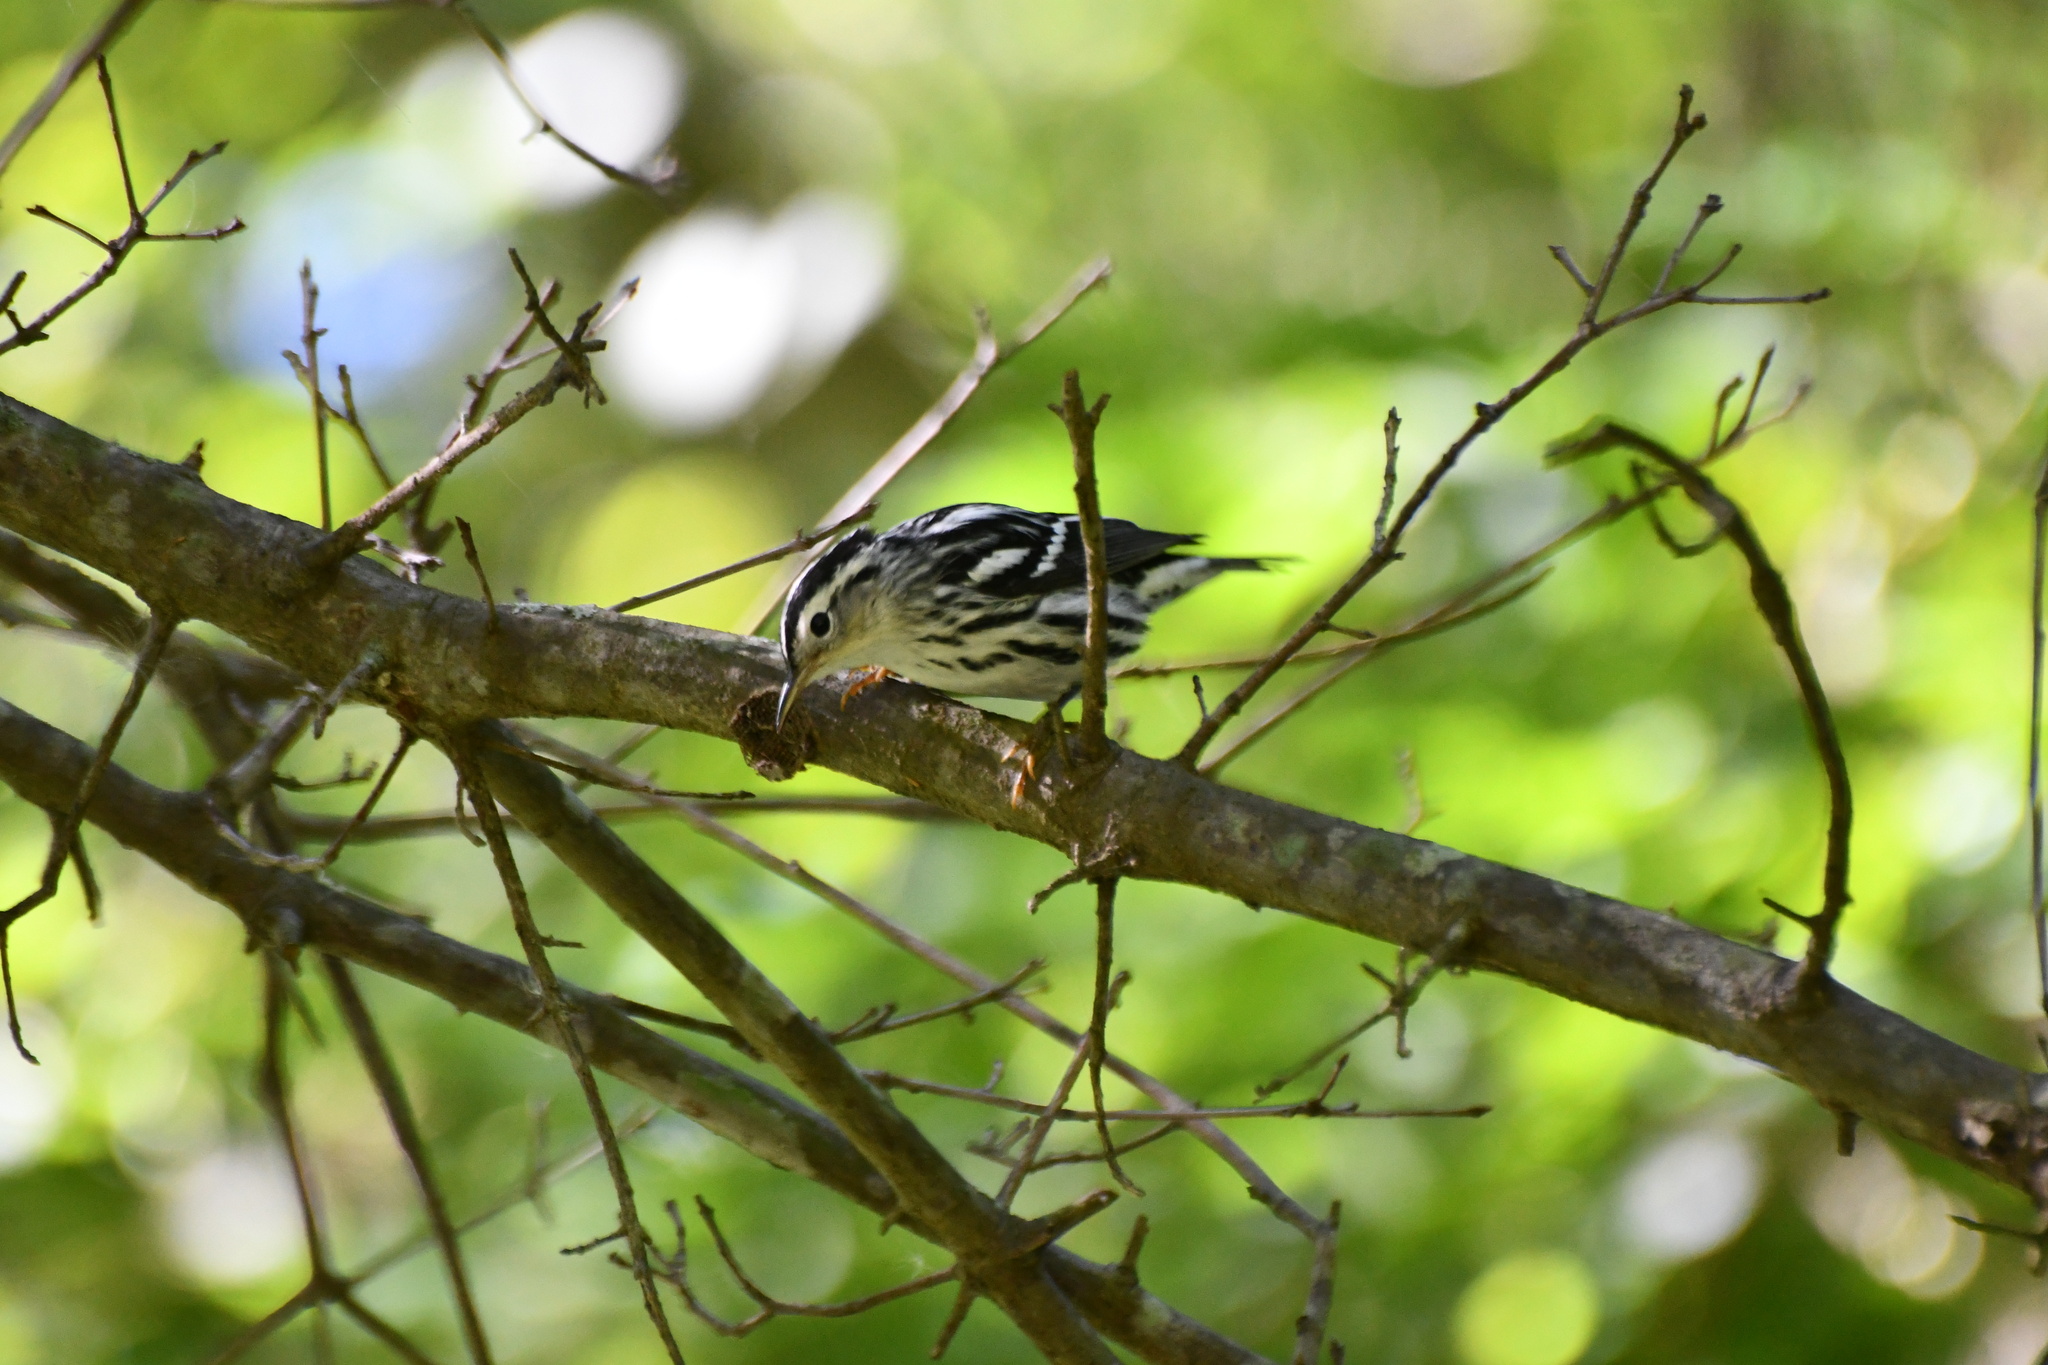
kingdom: Animalia
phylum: Chordata
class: Aves
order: Passeriformes
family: Parulidae
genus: Mniotilta
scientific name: Mniotilta varia
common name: Black-and-white warbler
